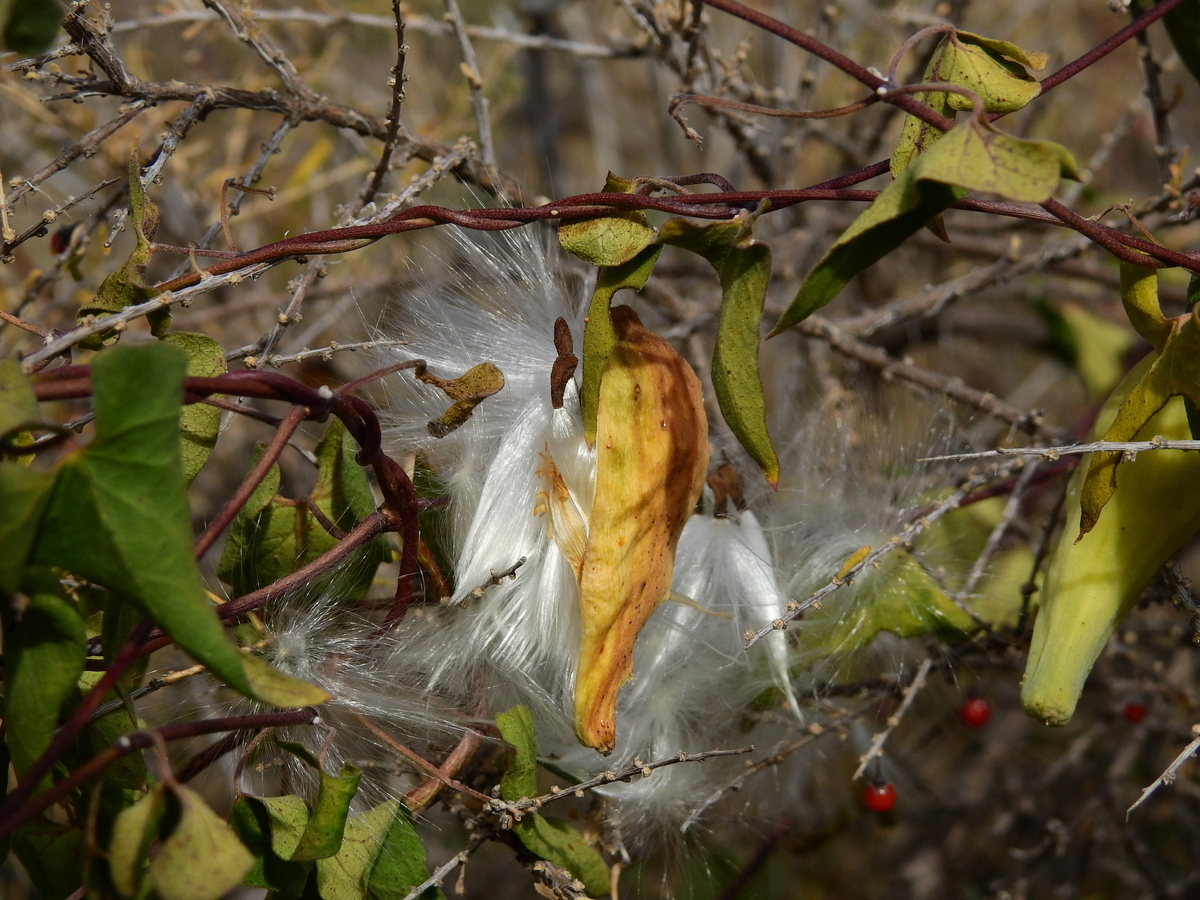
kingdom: Plantae
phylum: Tracheophyta
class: Magnoliopsida
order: Gentianales
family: Apocynaceae
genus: Philibertia
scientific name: Philibertia gilliesii
